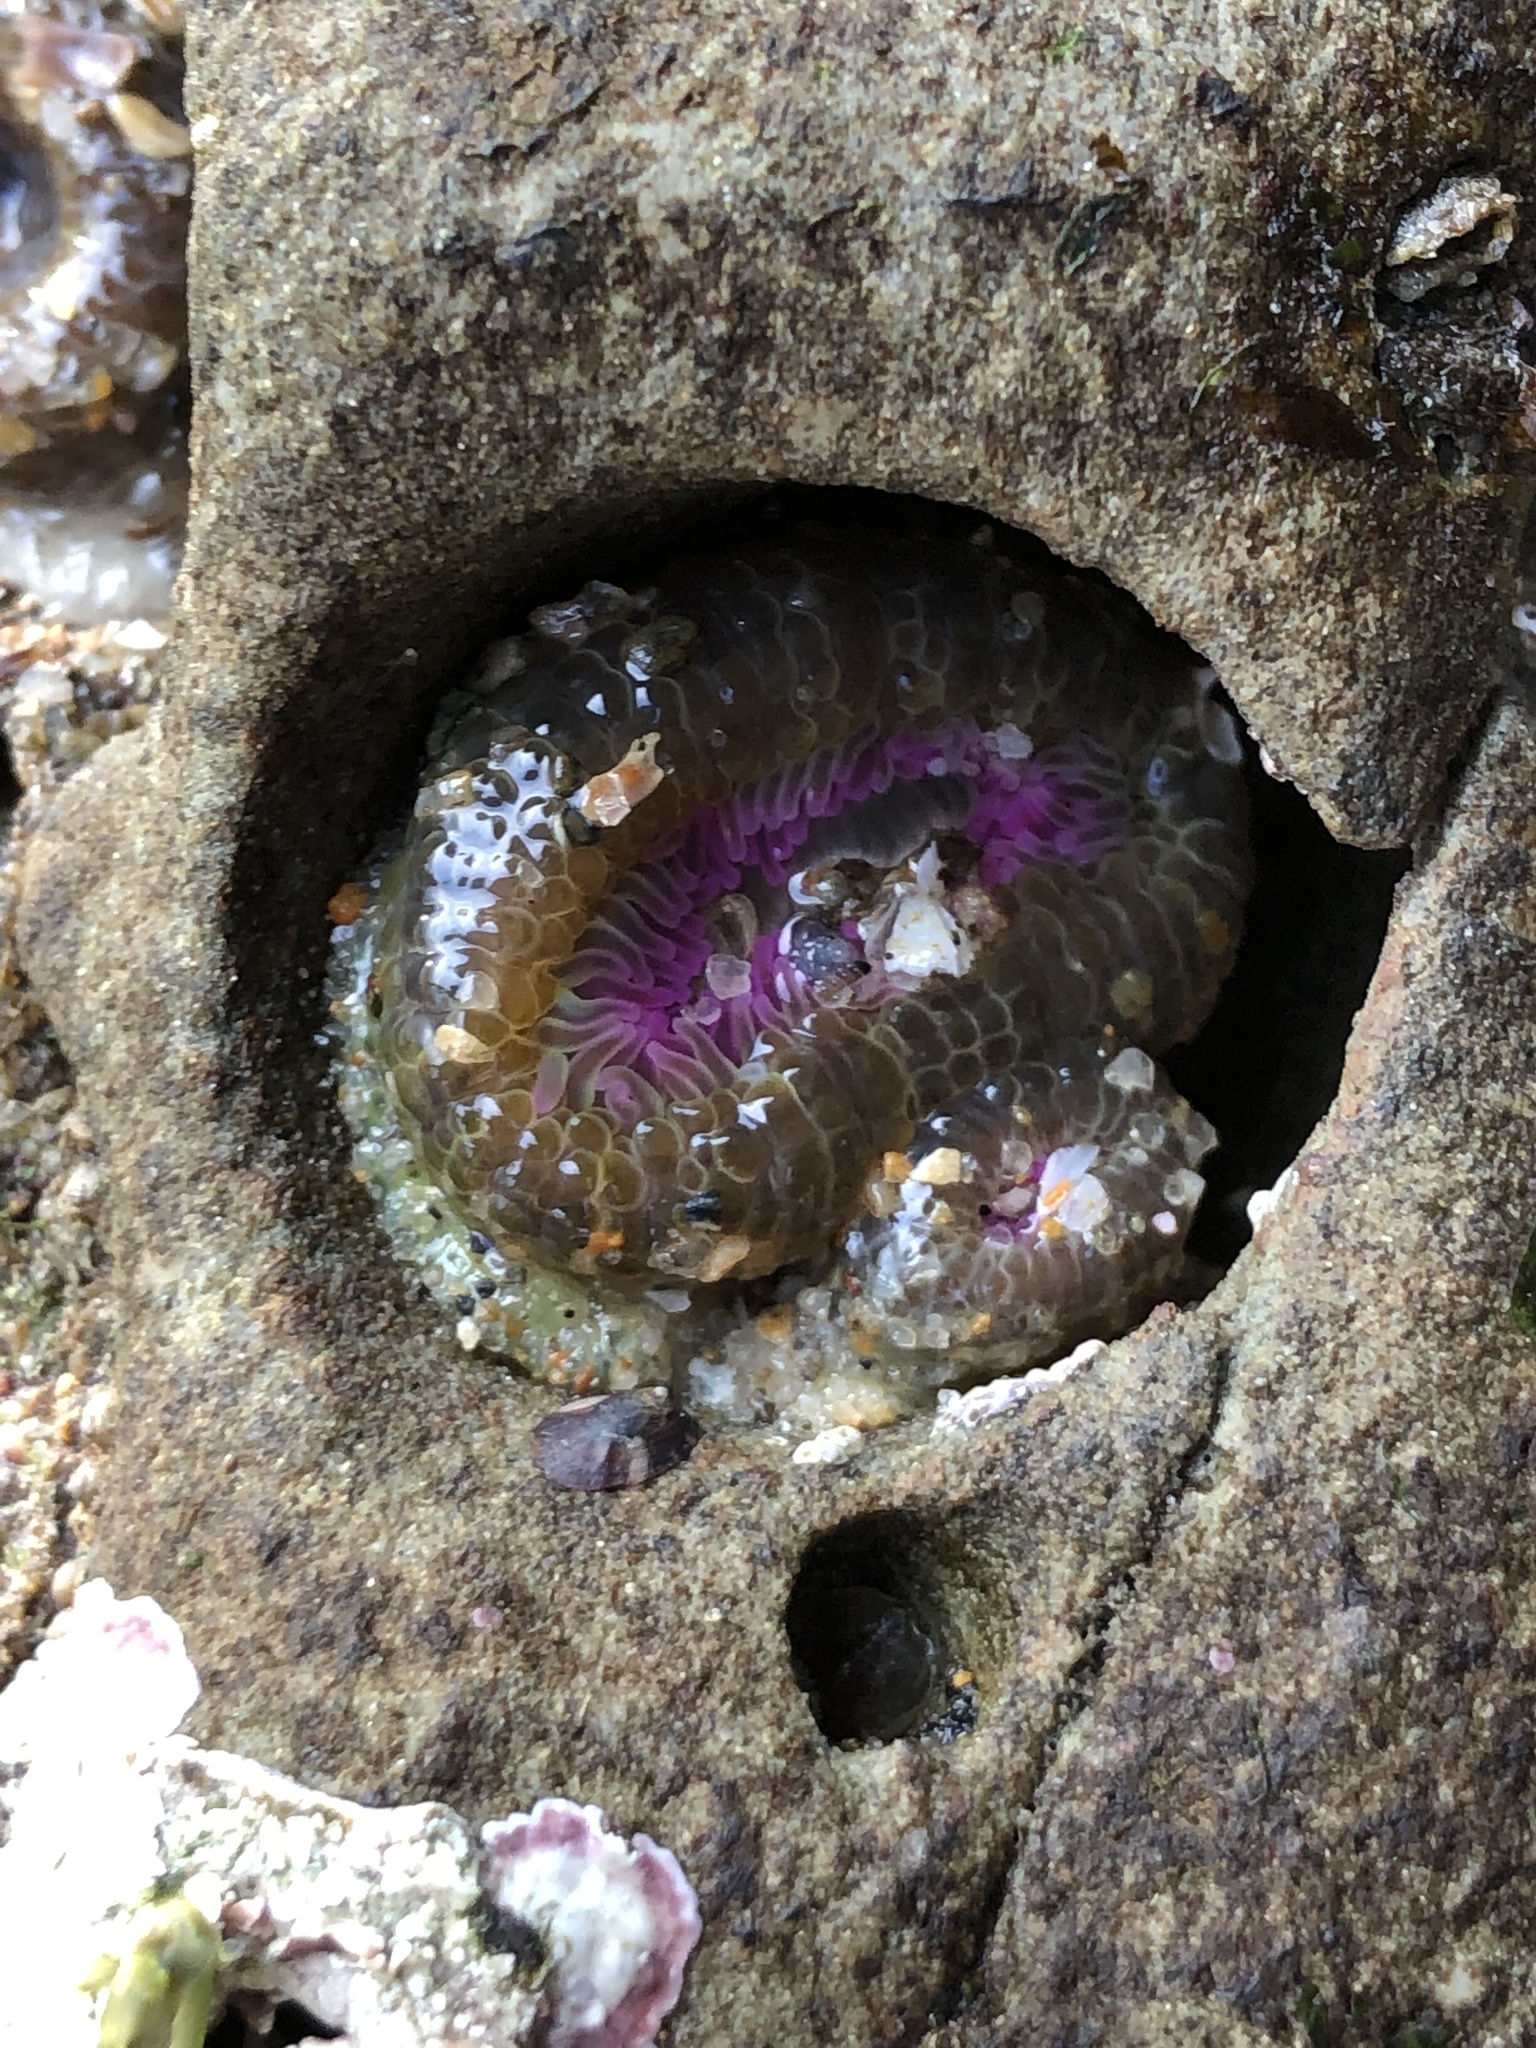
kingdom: Animalia
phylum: Cnidaria
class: Anthozoa
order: Actiniaria
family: Actiniidae
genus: Anthopleura
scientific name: Anthopleura elegantissima
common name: Clonal anemone
